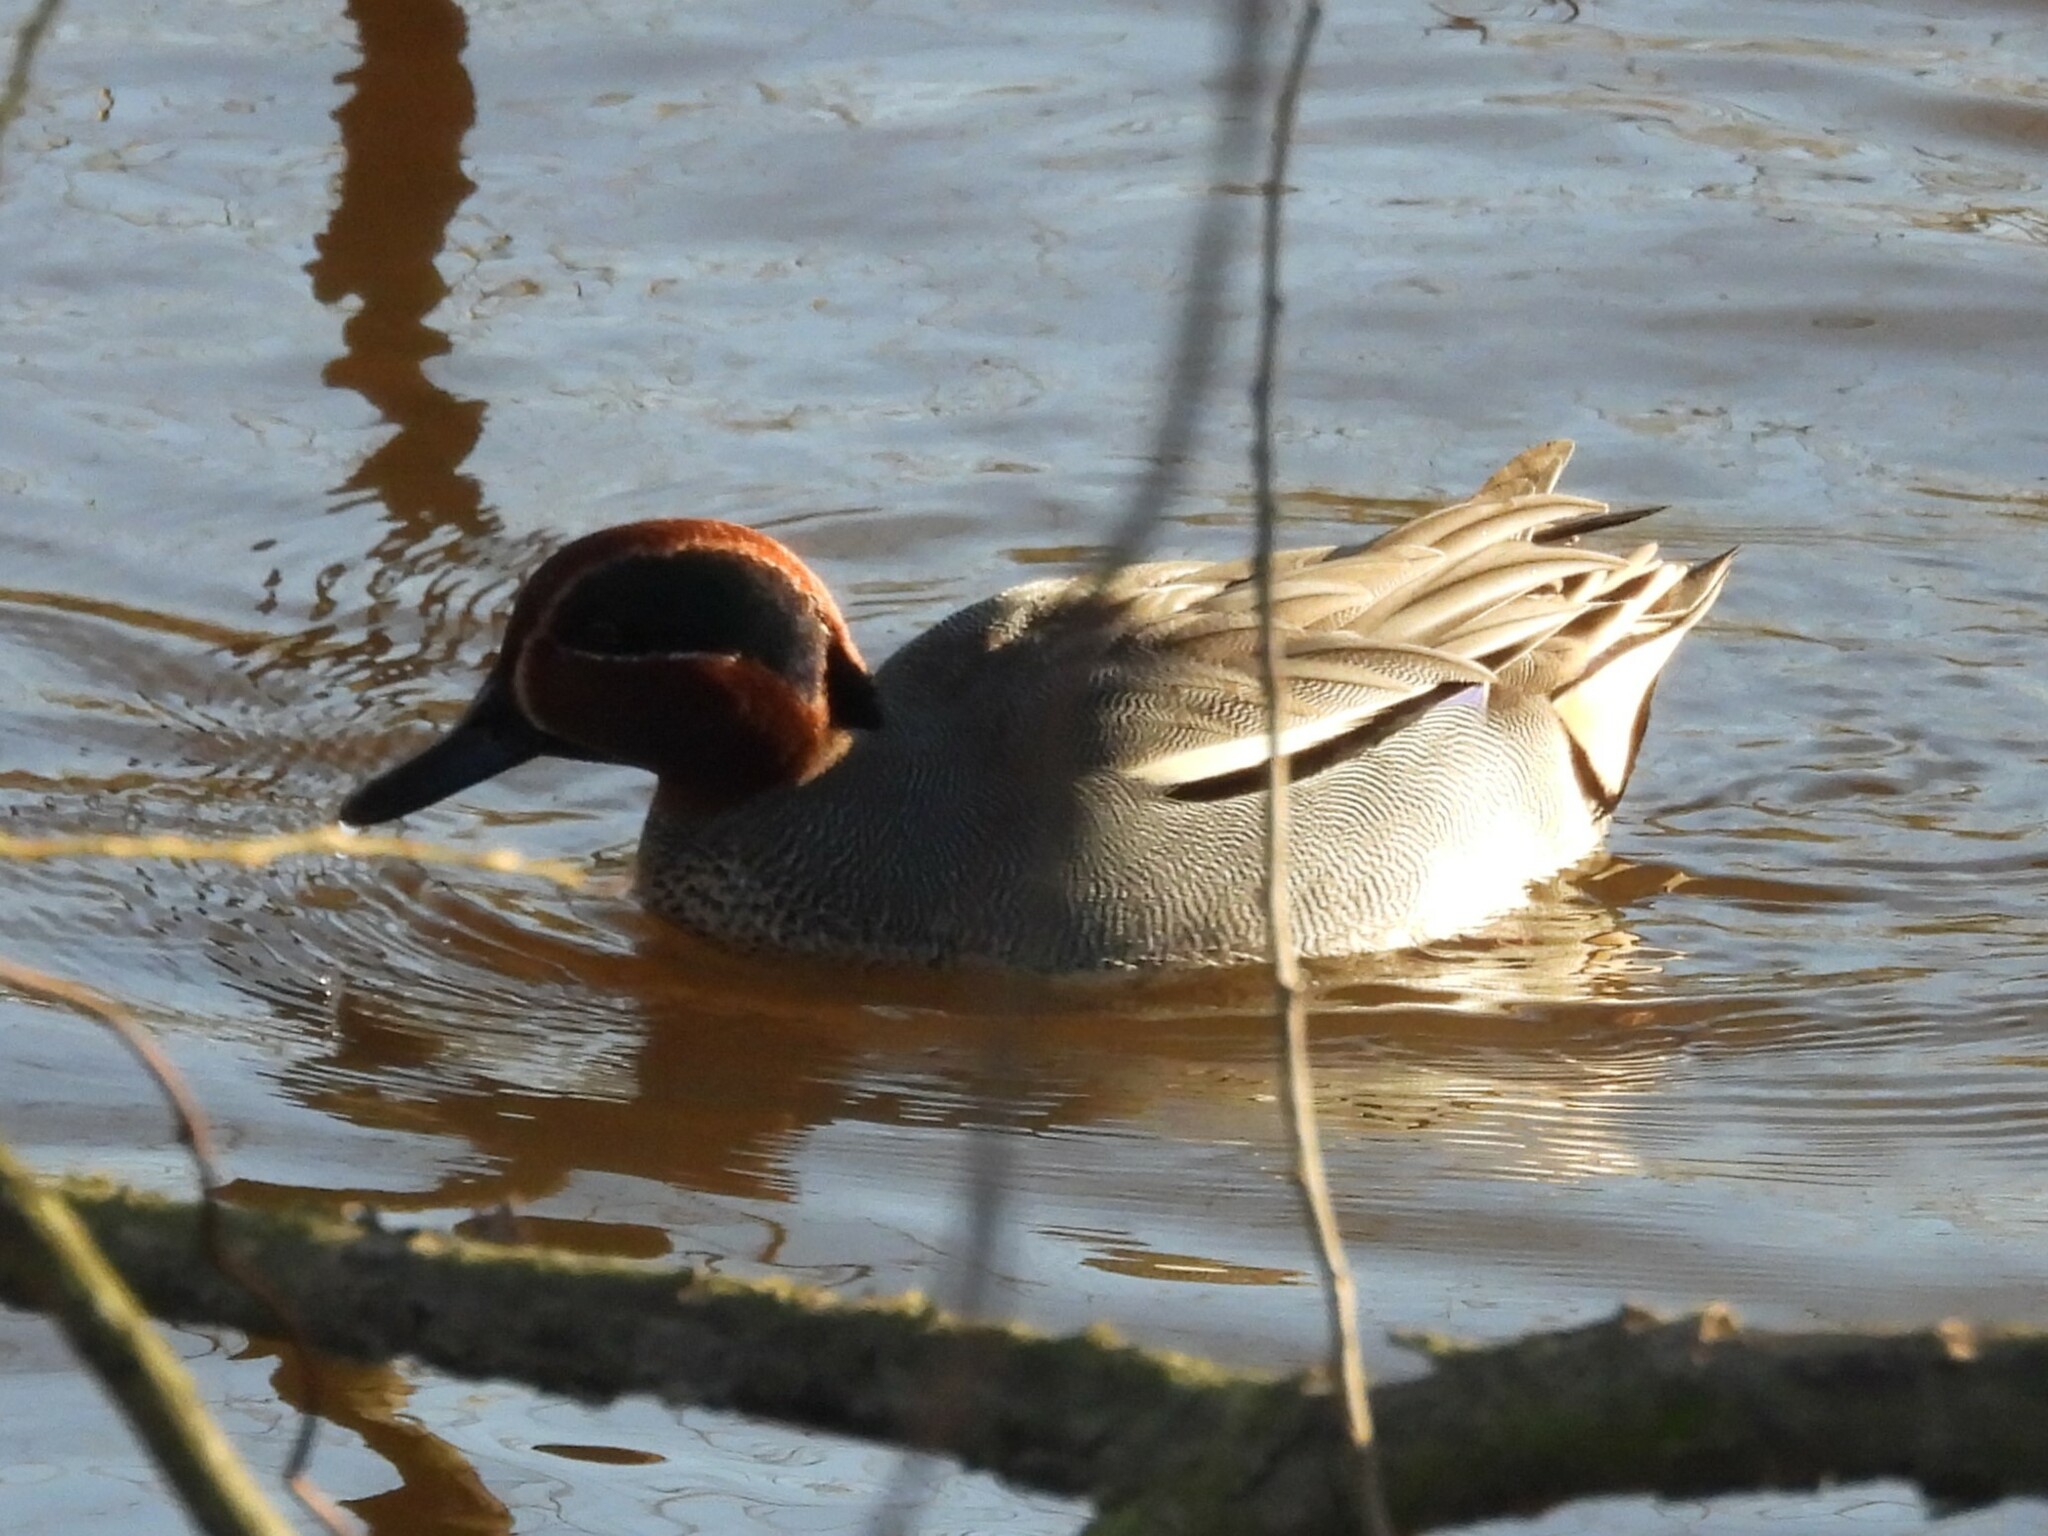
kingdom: Animalia
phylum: Chordata
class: Aves
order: Anseriformes
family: Anatidae
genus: Anas
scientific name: Anas crecca
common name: Eurasian teal
